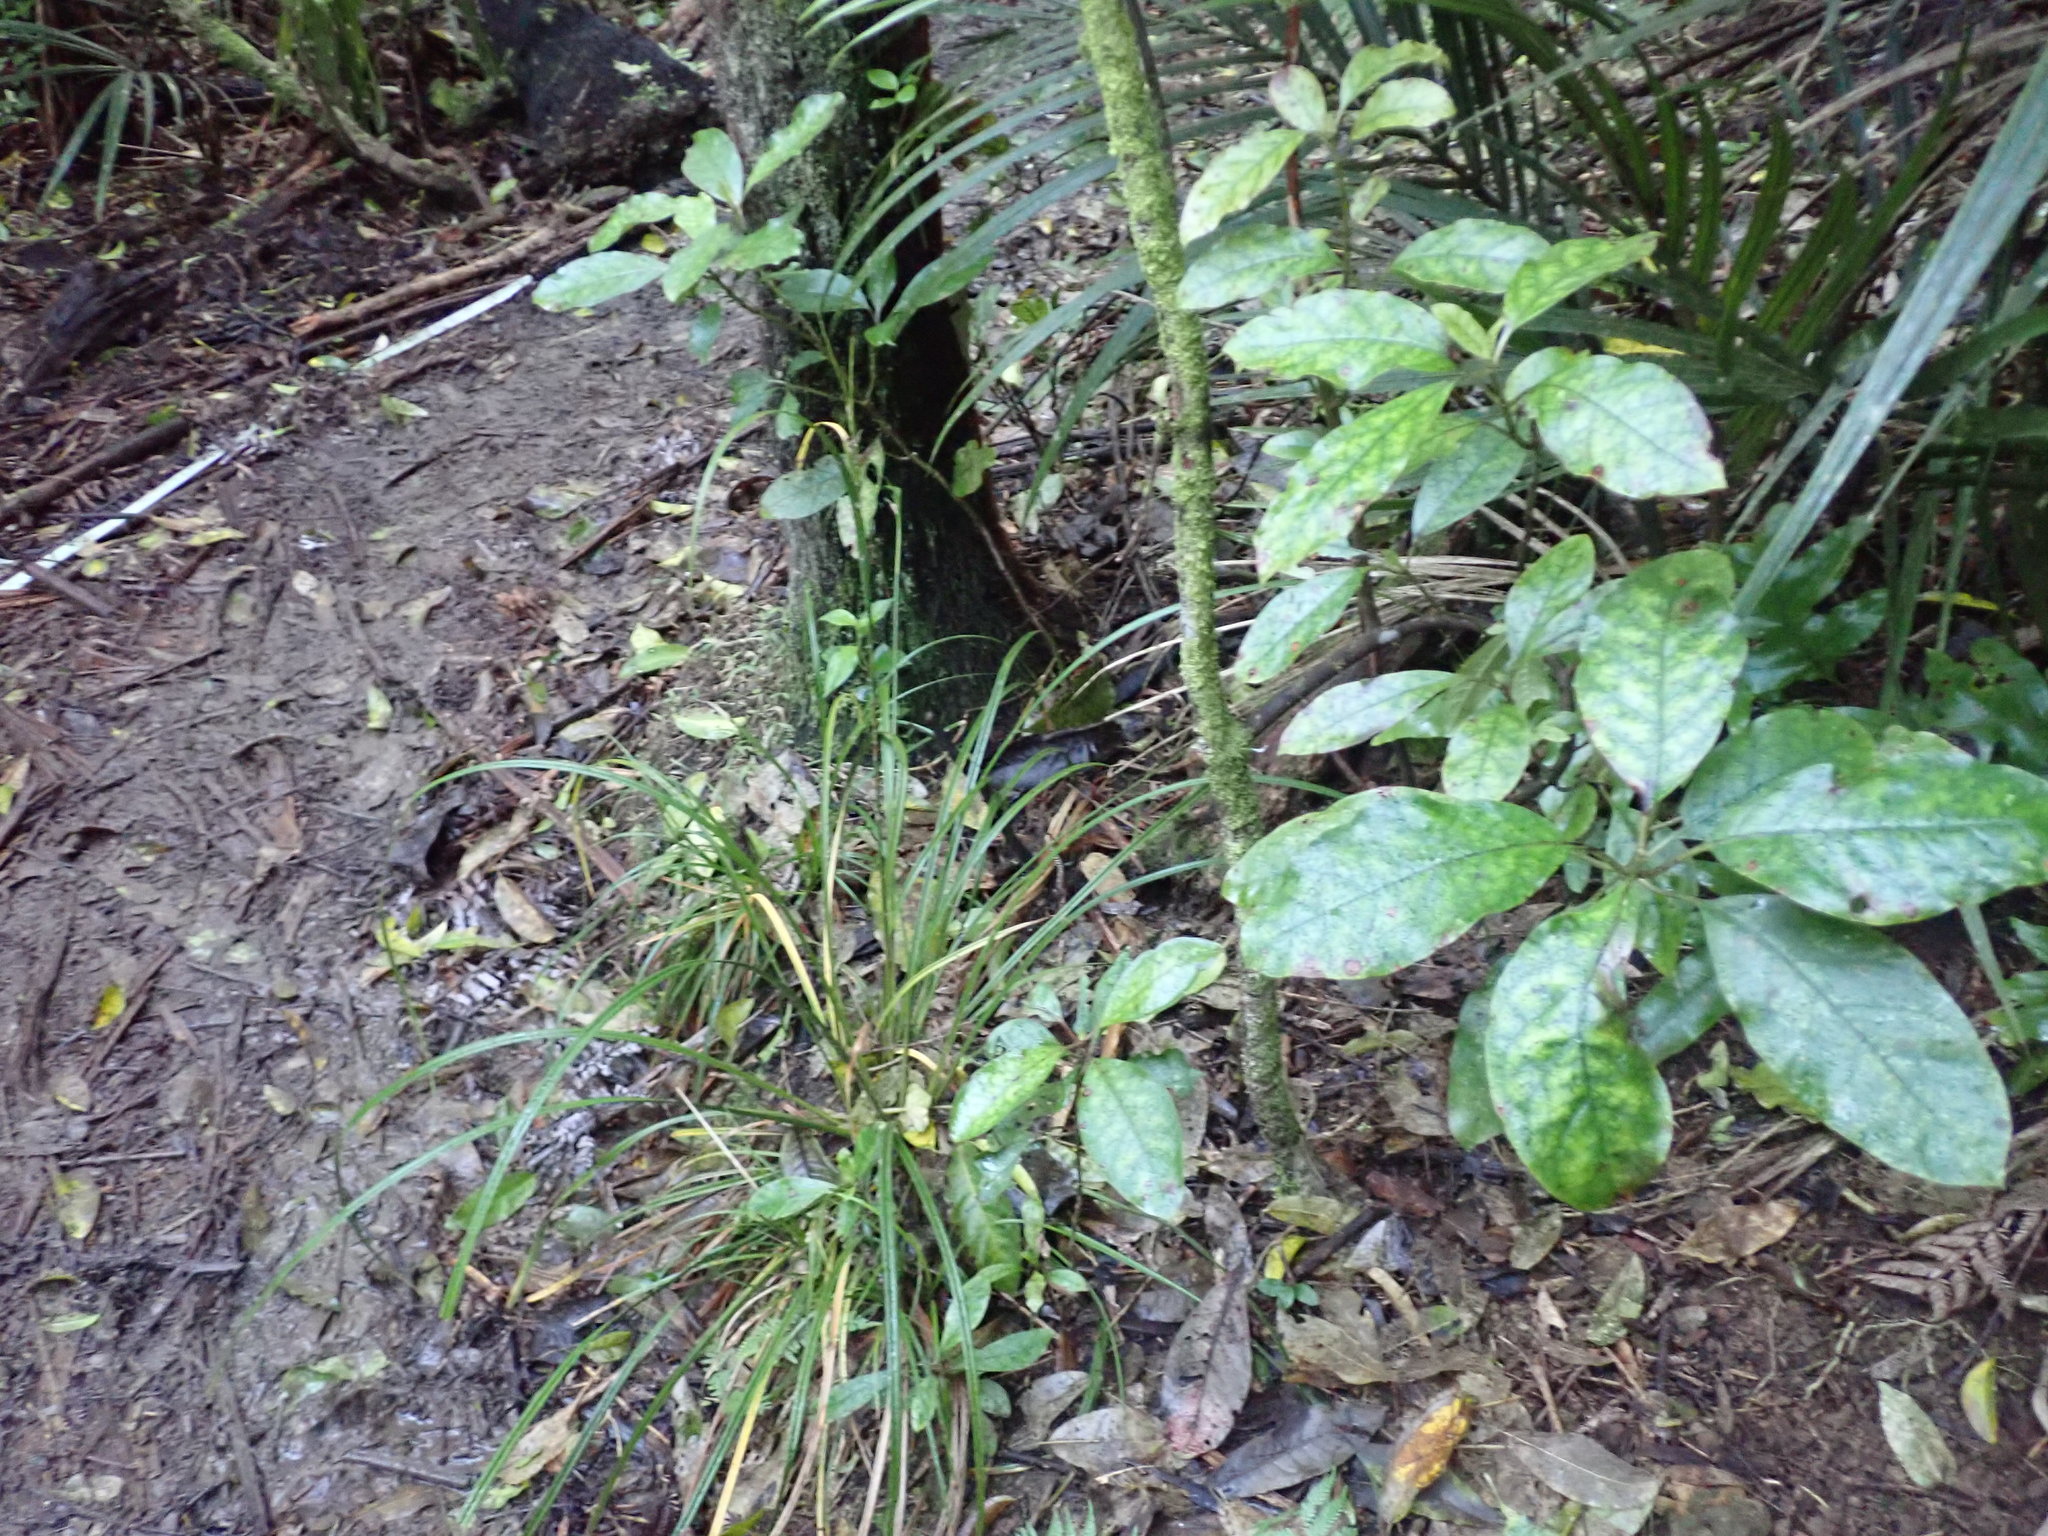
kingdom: Plantae
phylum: Tracheophyta
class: Magnoliopsida
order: Gentianales
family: Rubiaceae
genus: Coprosma
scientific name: Coprosma autumnalis
